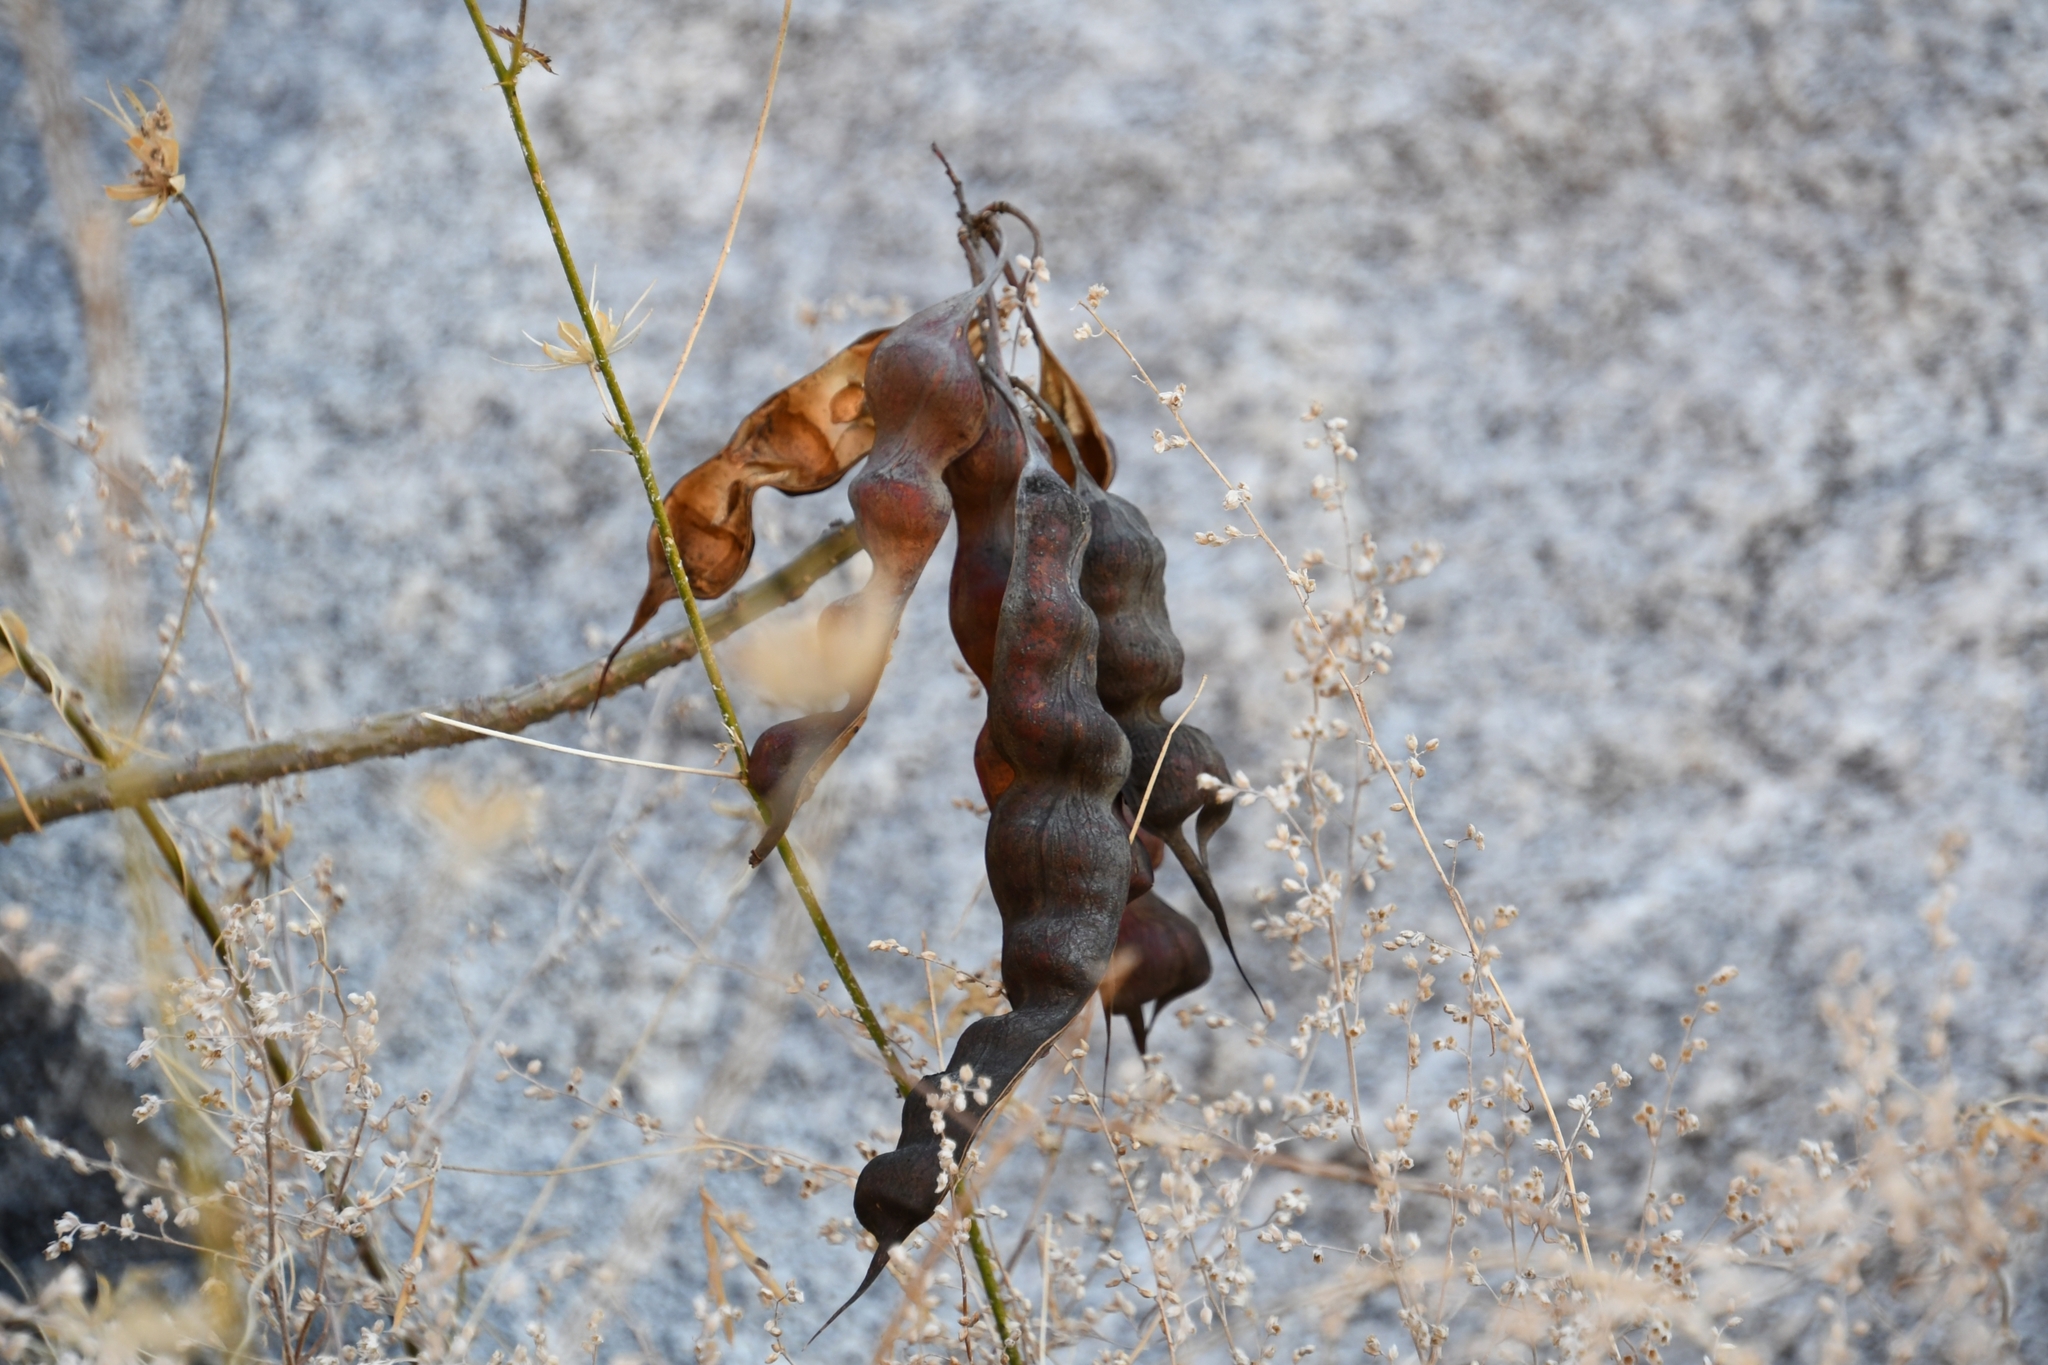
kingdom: Plantae
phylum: Tracheophyta
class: Magnoliopsida
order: Fabales
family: Fabaceae
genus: Erythrina
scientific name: Erythrina flabelliformis
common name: Chilicote
